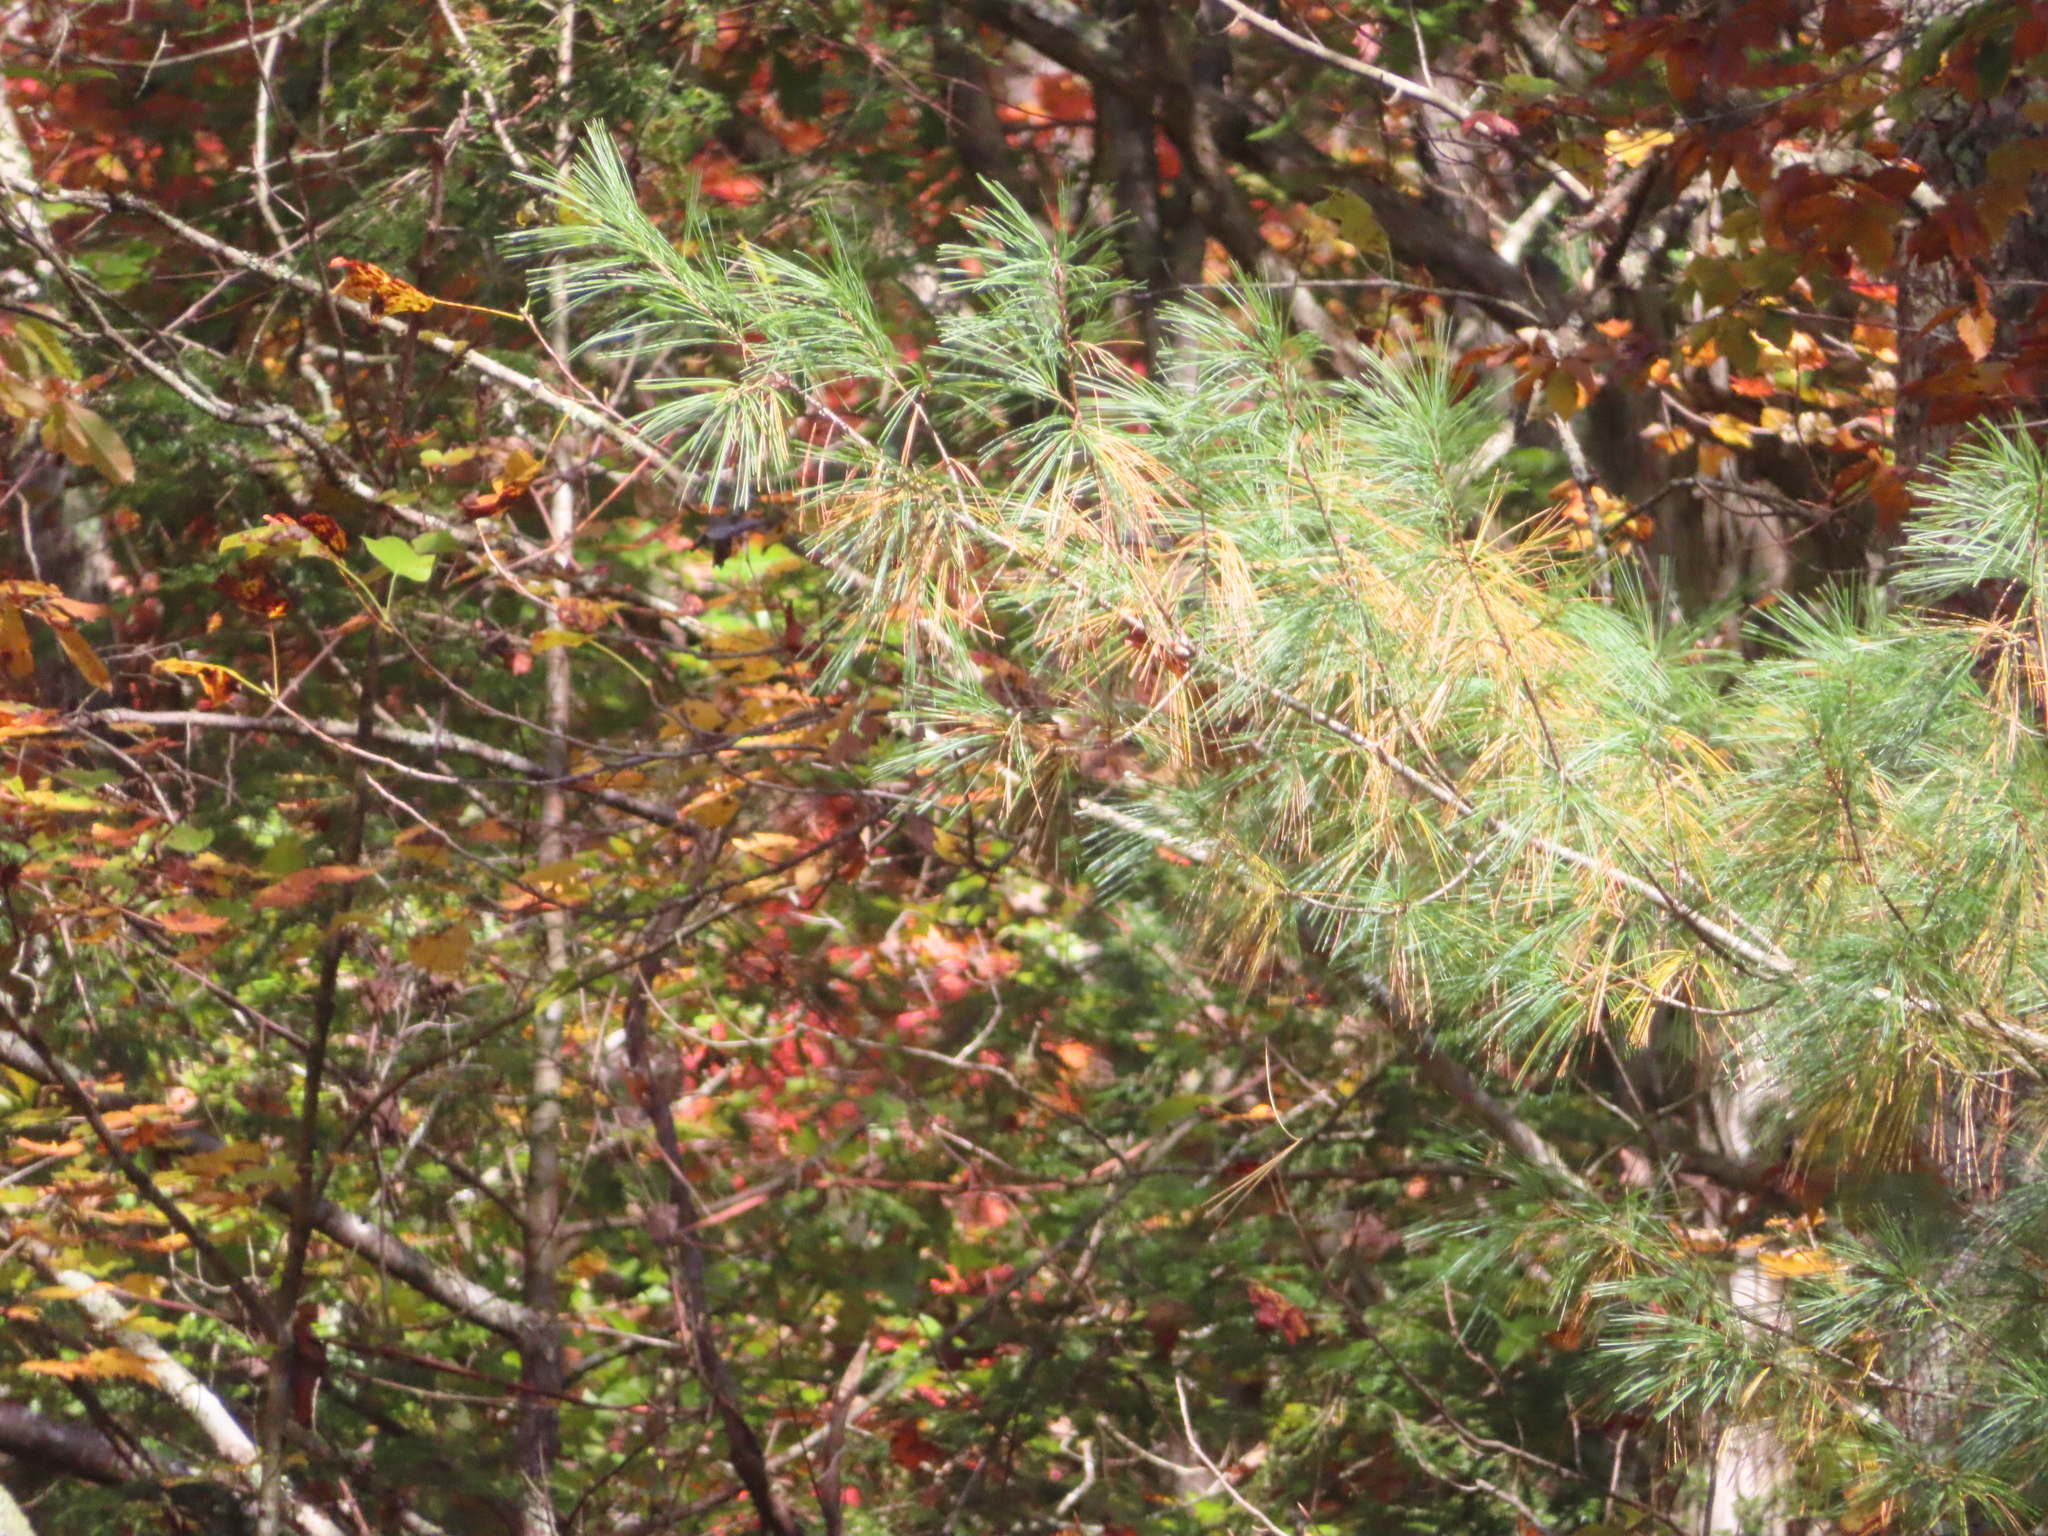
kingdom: Plantae
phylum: Tracheophyta
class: Pinopsida
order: Pinales
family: Pinaceae
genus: Pinus
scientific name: Pinus strobus
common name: Weymouth pine
